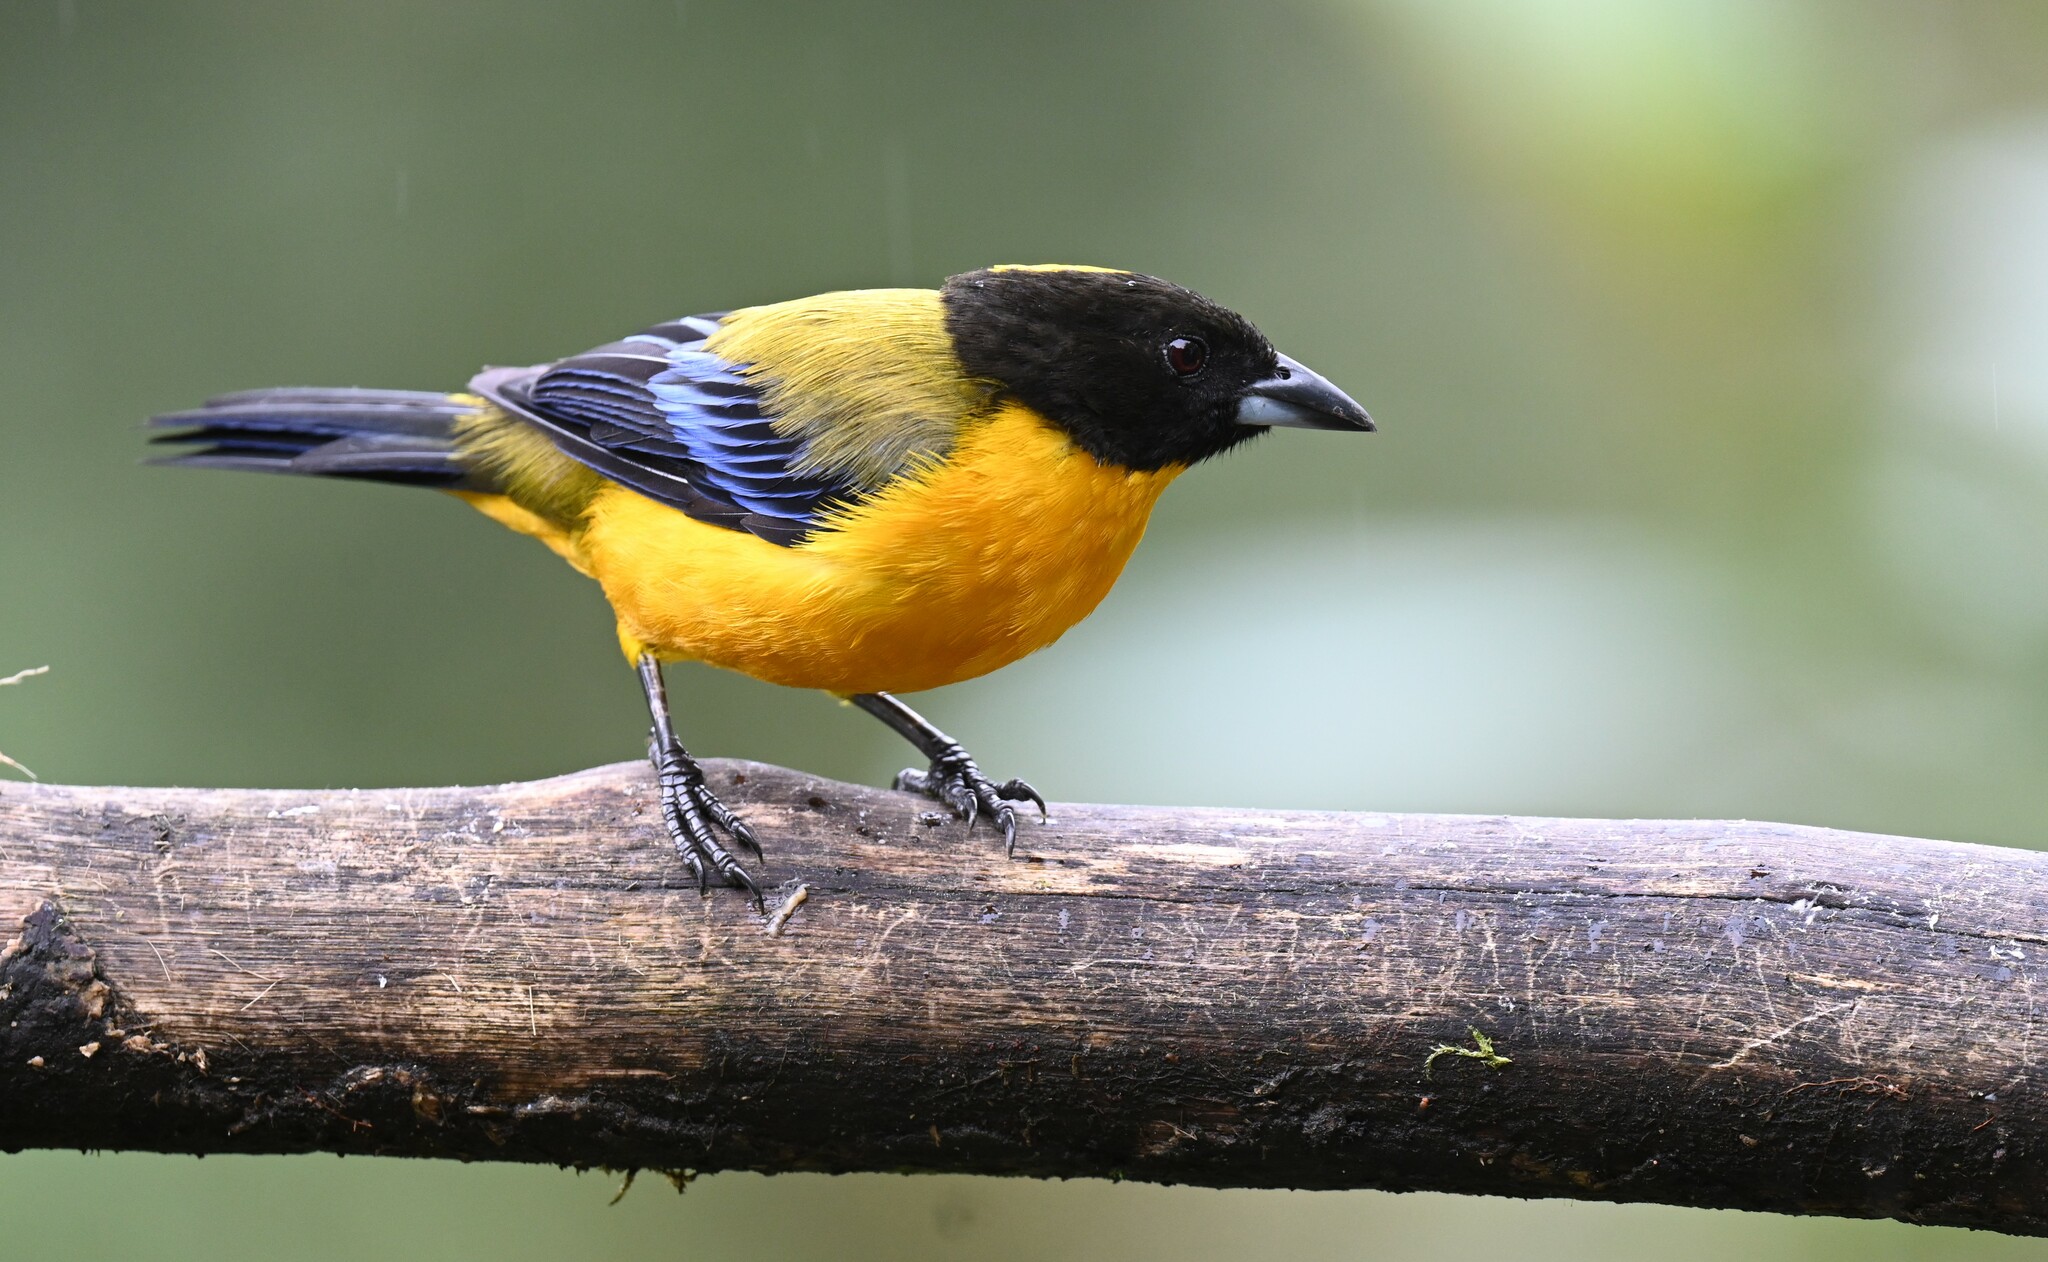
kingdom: Animalia
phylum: Chordata
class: Aves
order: Passeriformes
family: Thraupidae
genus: Anisognathus
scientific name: Anisognathus notabilis
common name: Black-chinned mountain tanager
